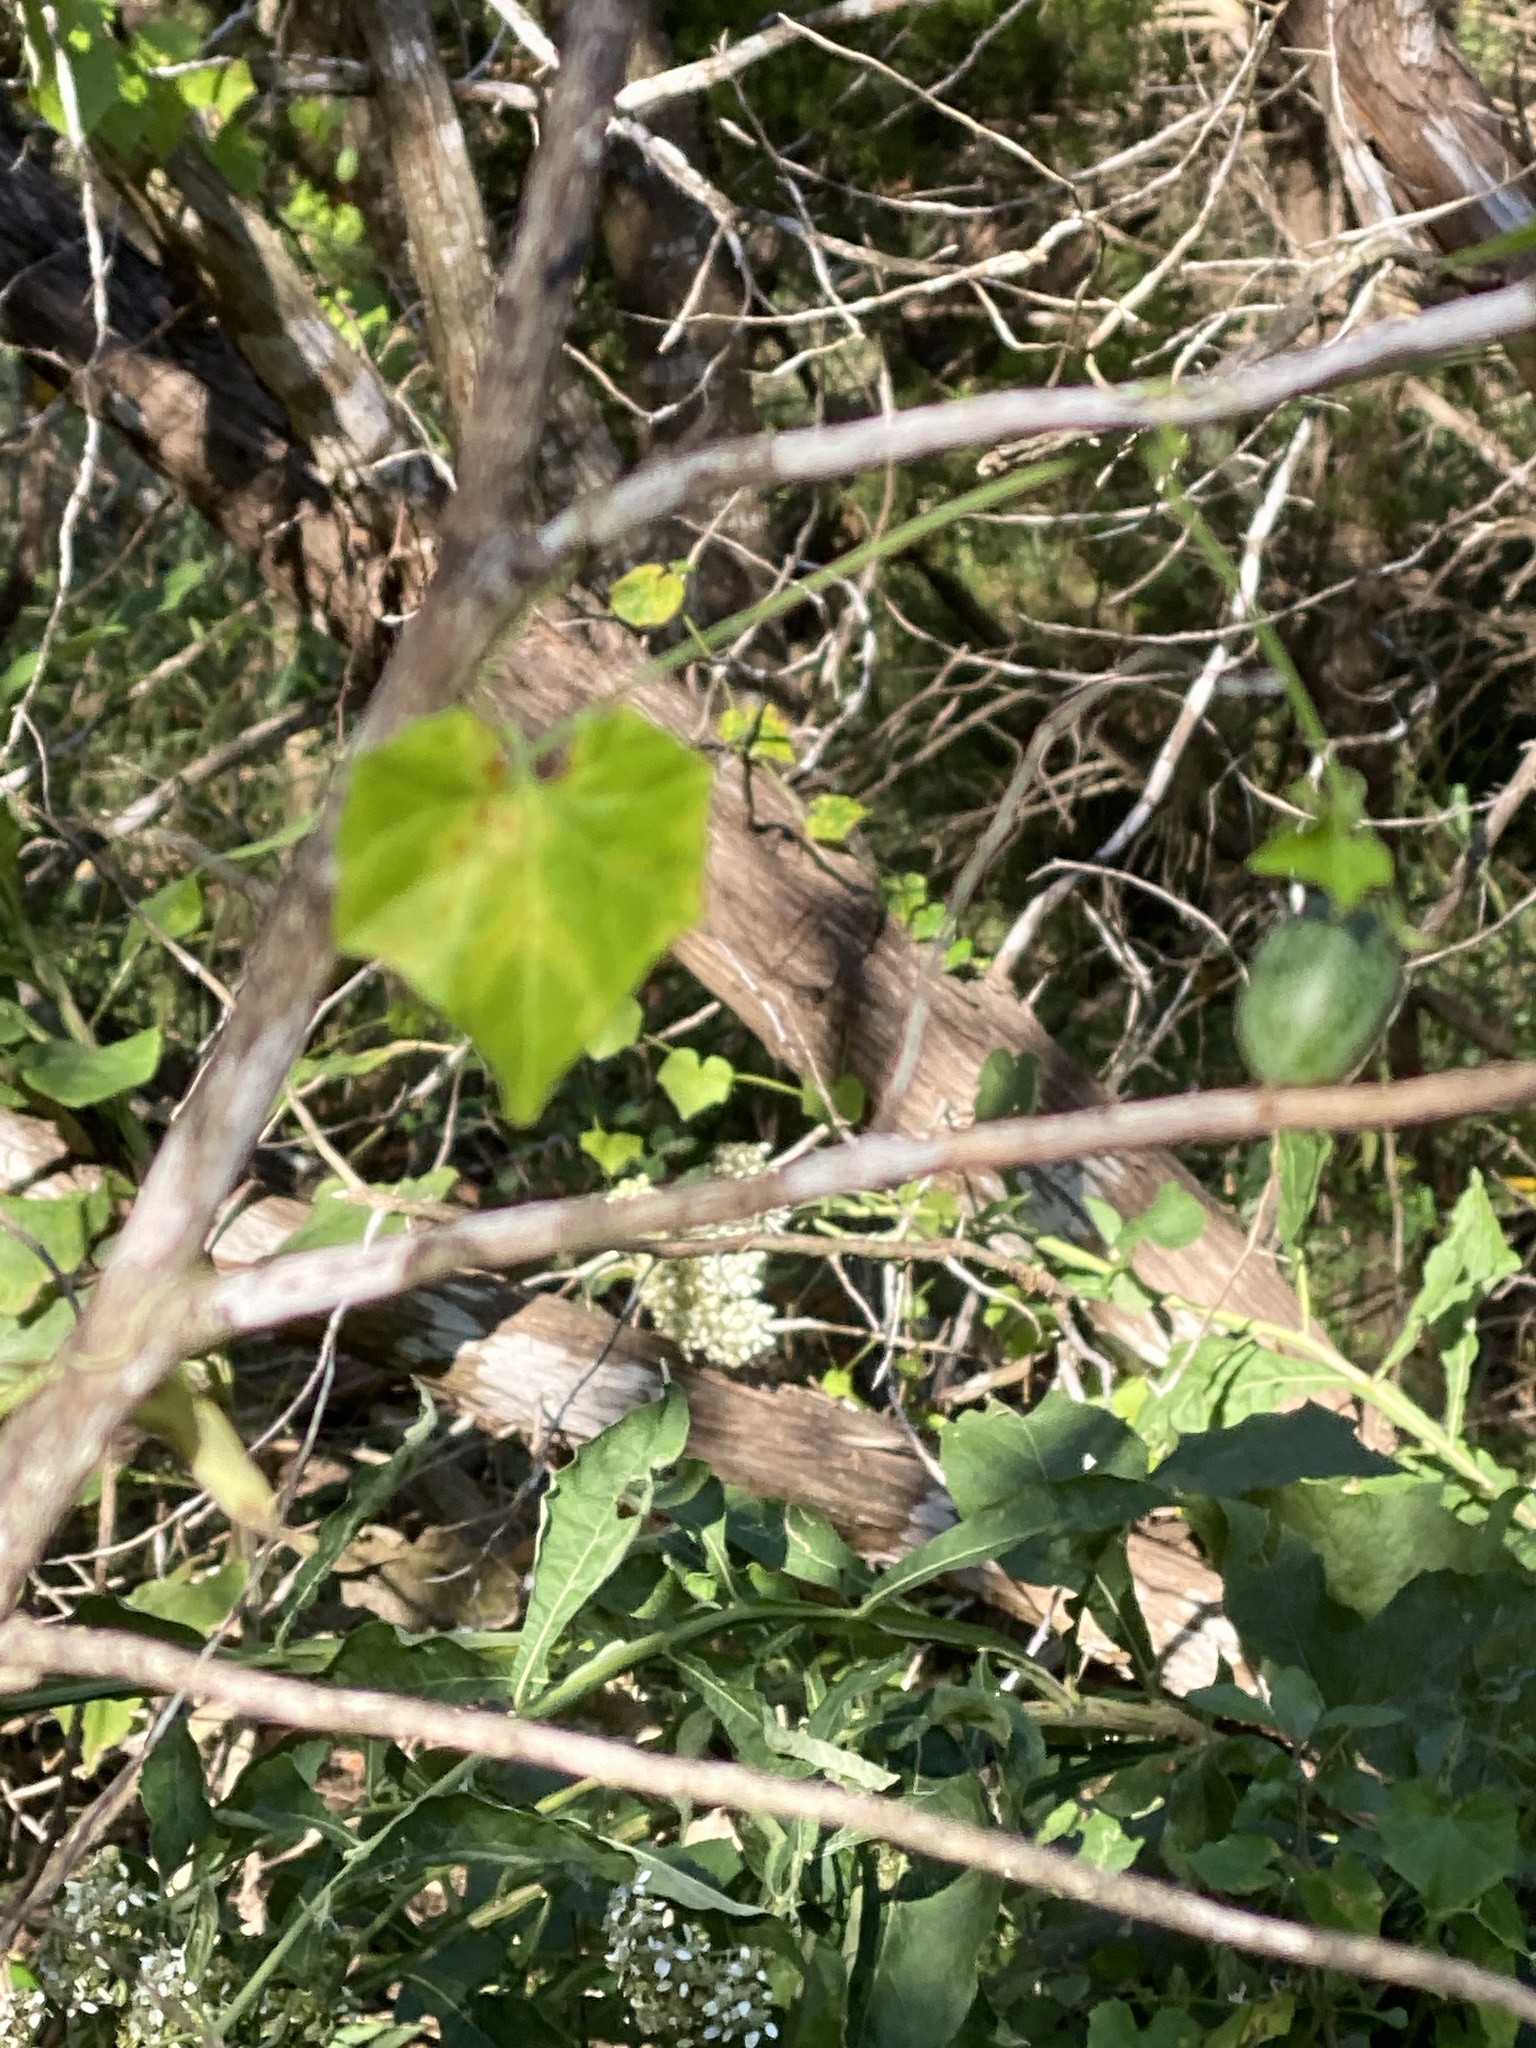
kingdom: Plantae
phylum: Tracheophyta
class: Magnoliopsida
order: Cucurbitales
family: Cucurbitaceae
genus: Melothria
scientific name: Melothria pendula
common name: Creeping-cucumber
